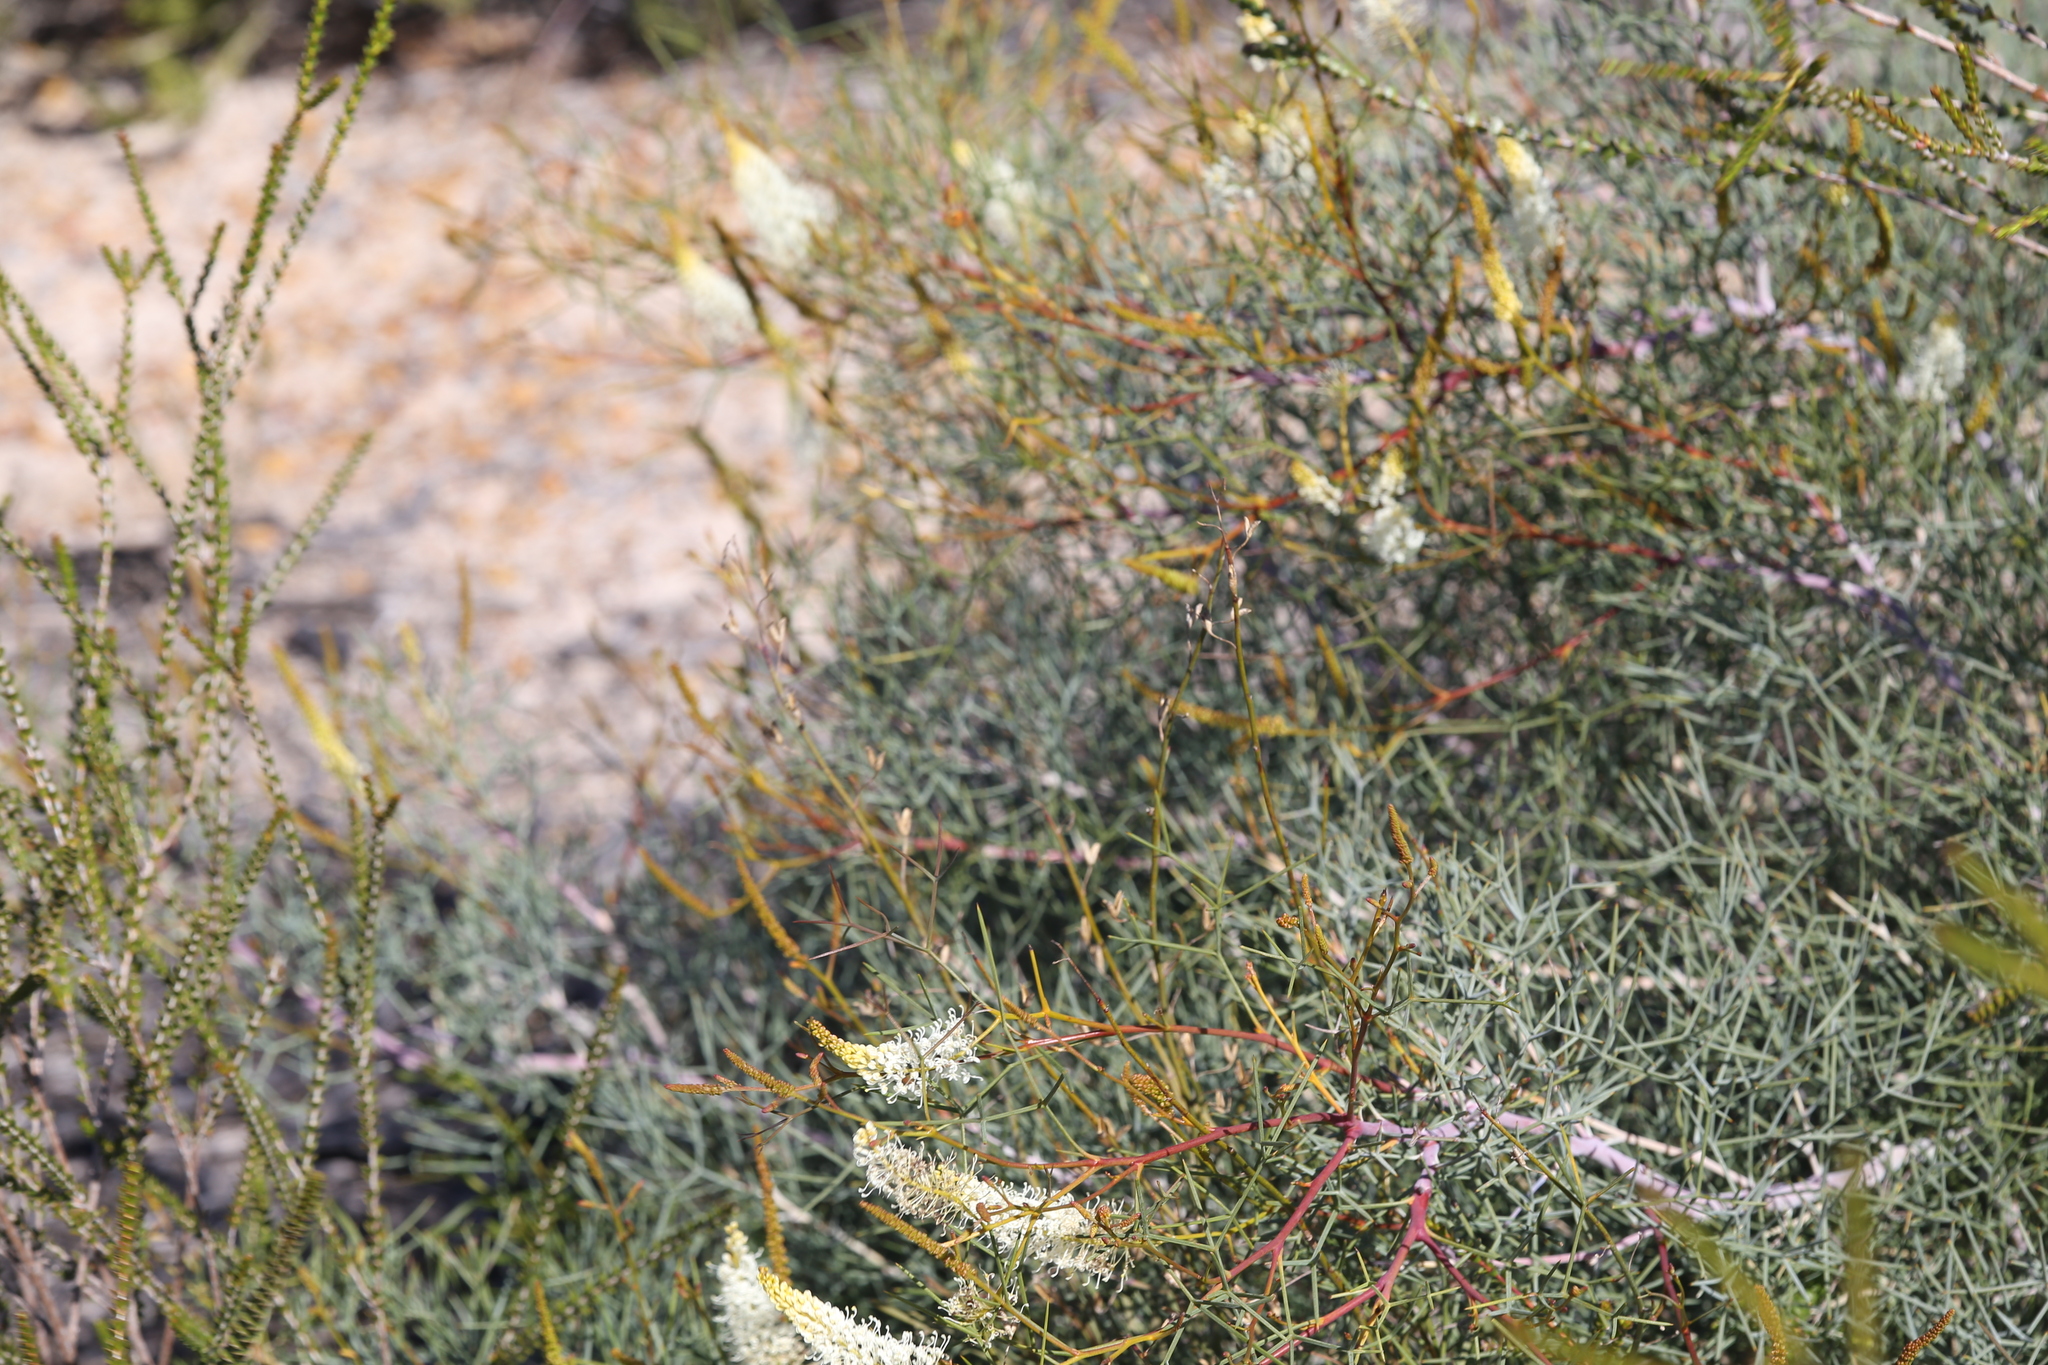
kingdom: Plantae
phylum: Tracheophyta
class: Magnoliopsida
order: Proteales
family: Proteaceae
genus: Grevillea
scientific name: Grevillea intricata
